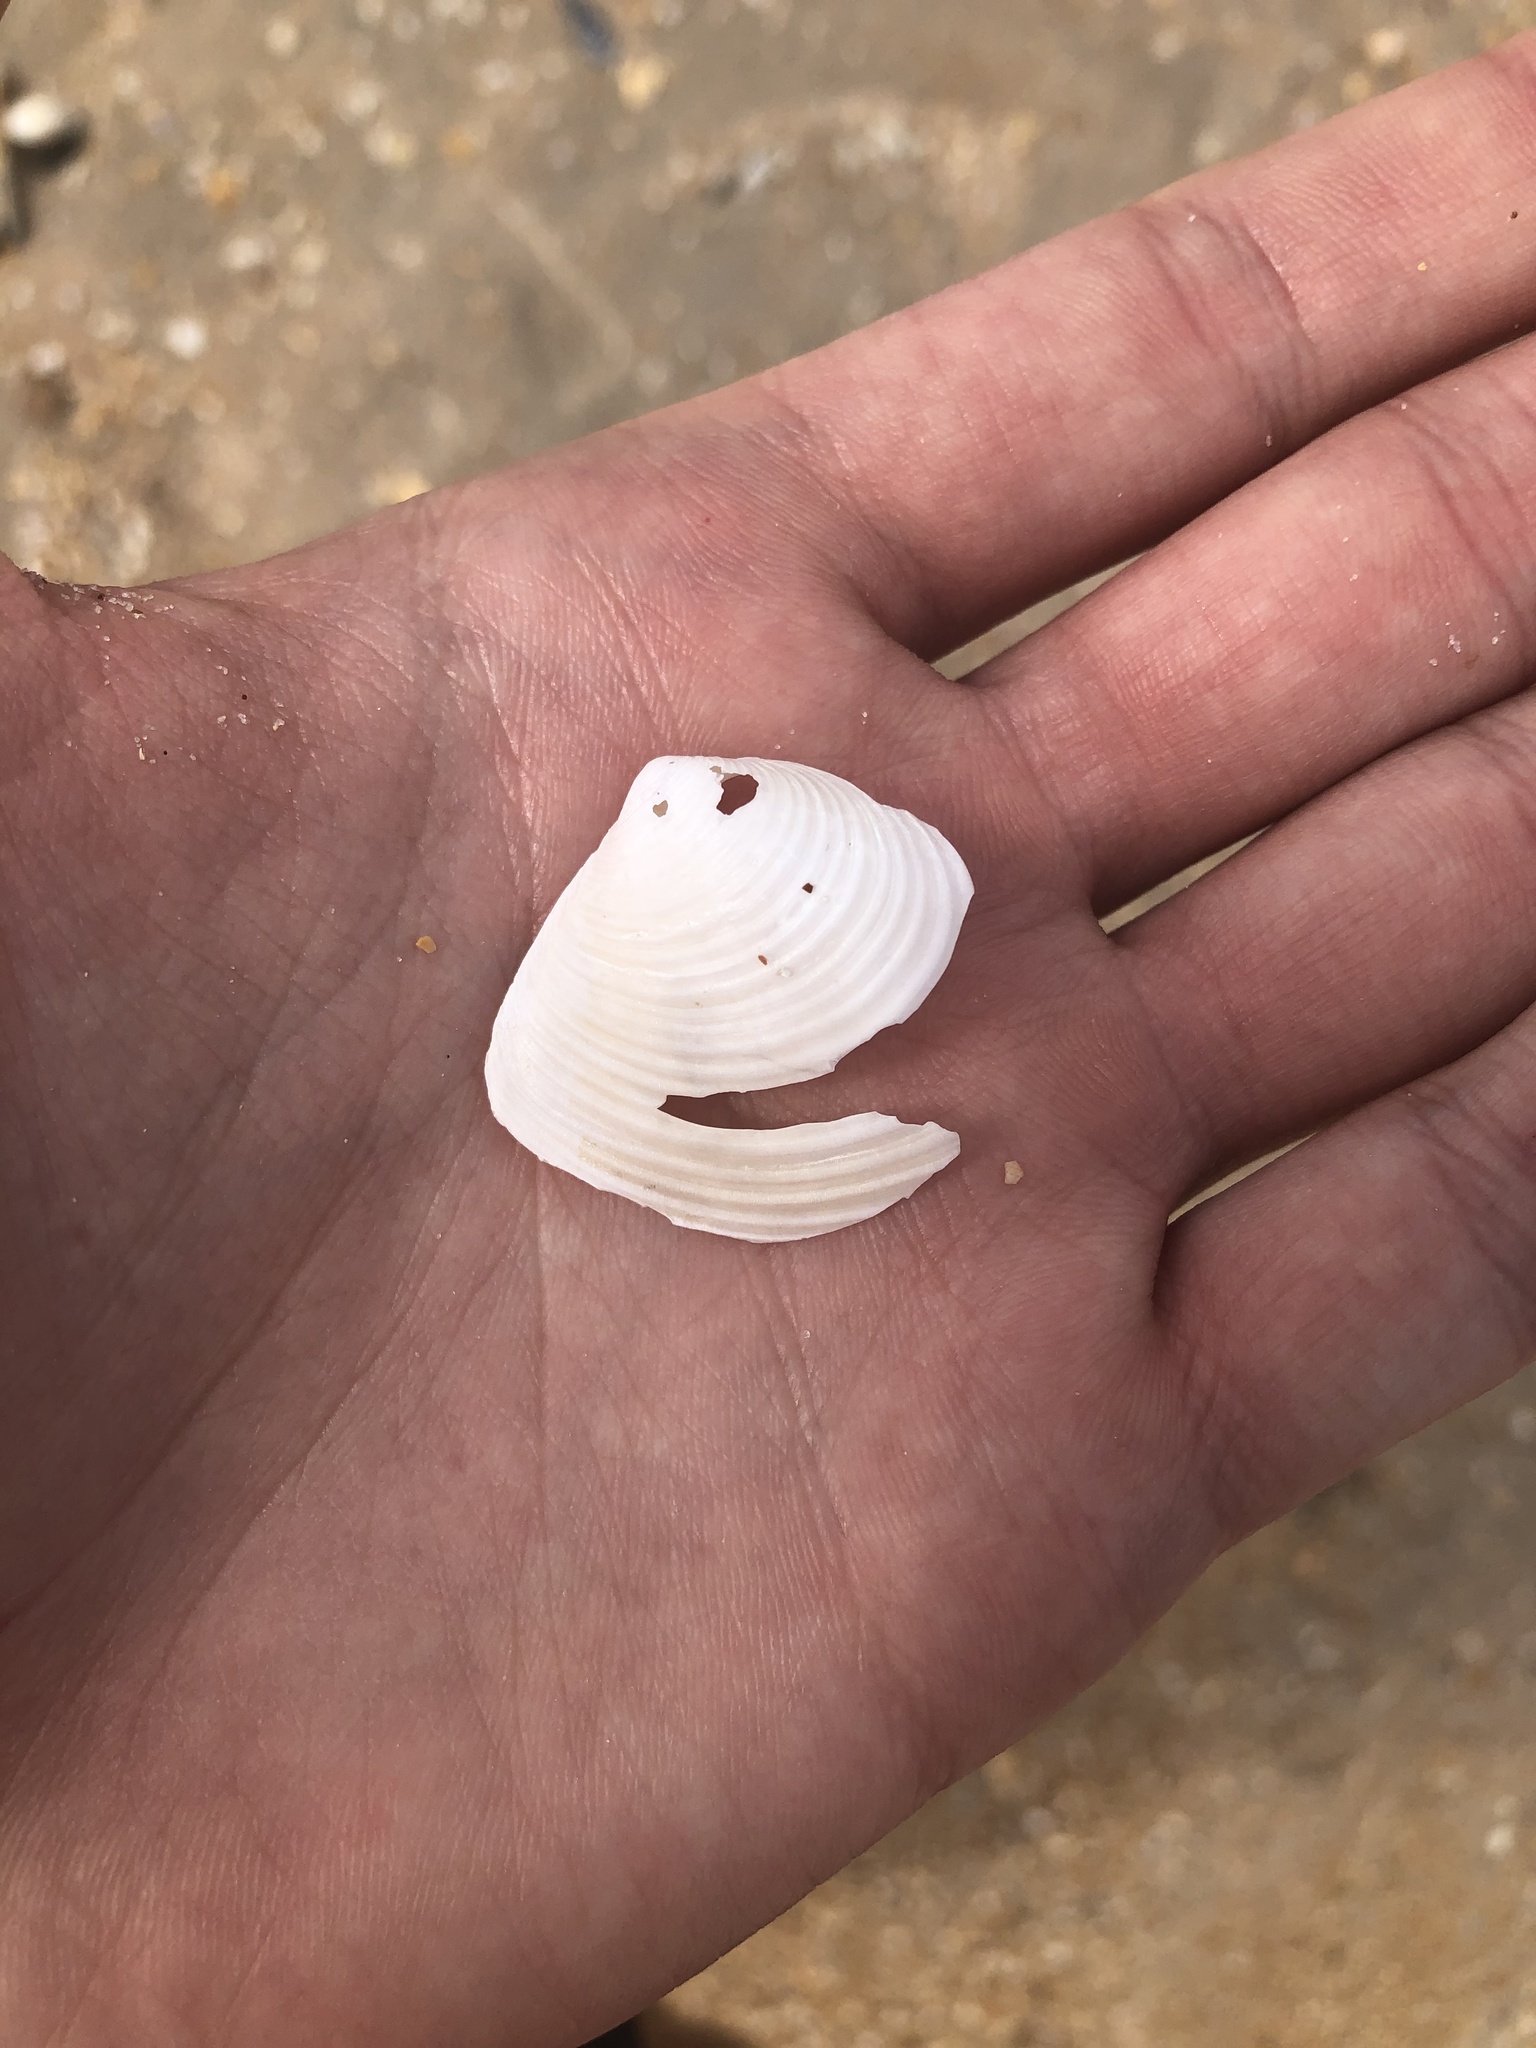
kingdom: Animalia
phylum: Mollusca
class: Bivalvia
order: Venerida
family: Anatinellidae
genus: Raeta
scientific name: Raeta plicatella
